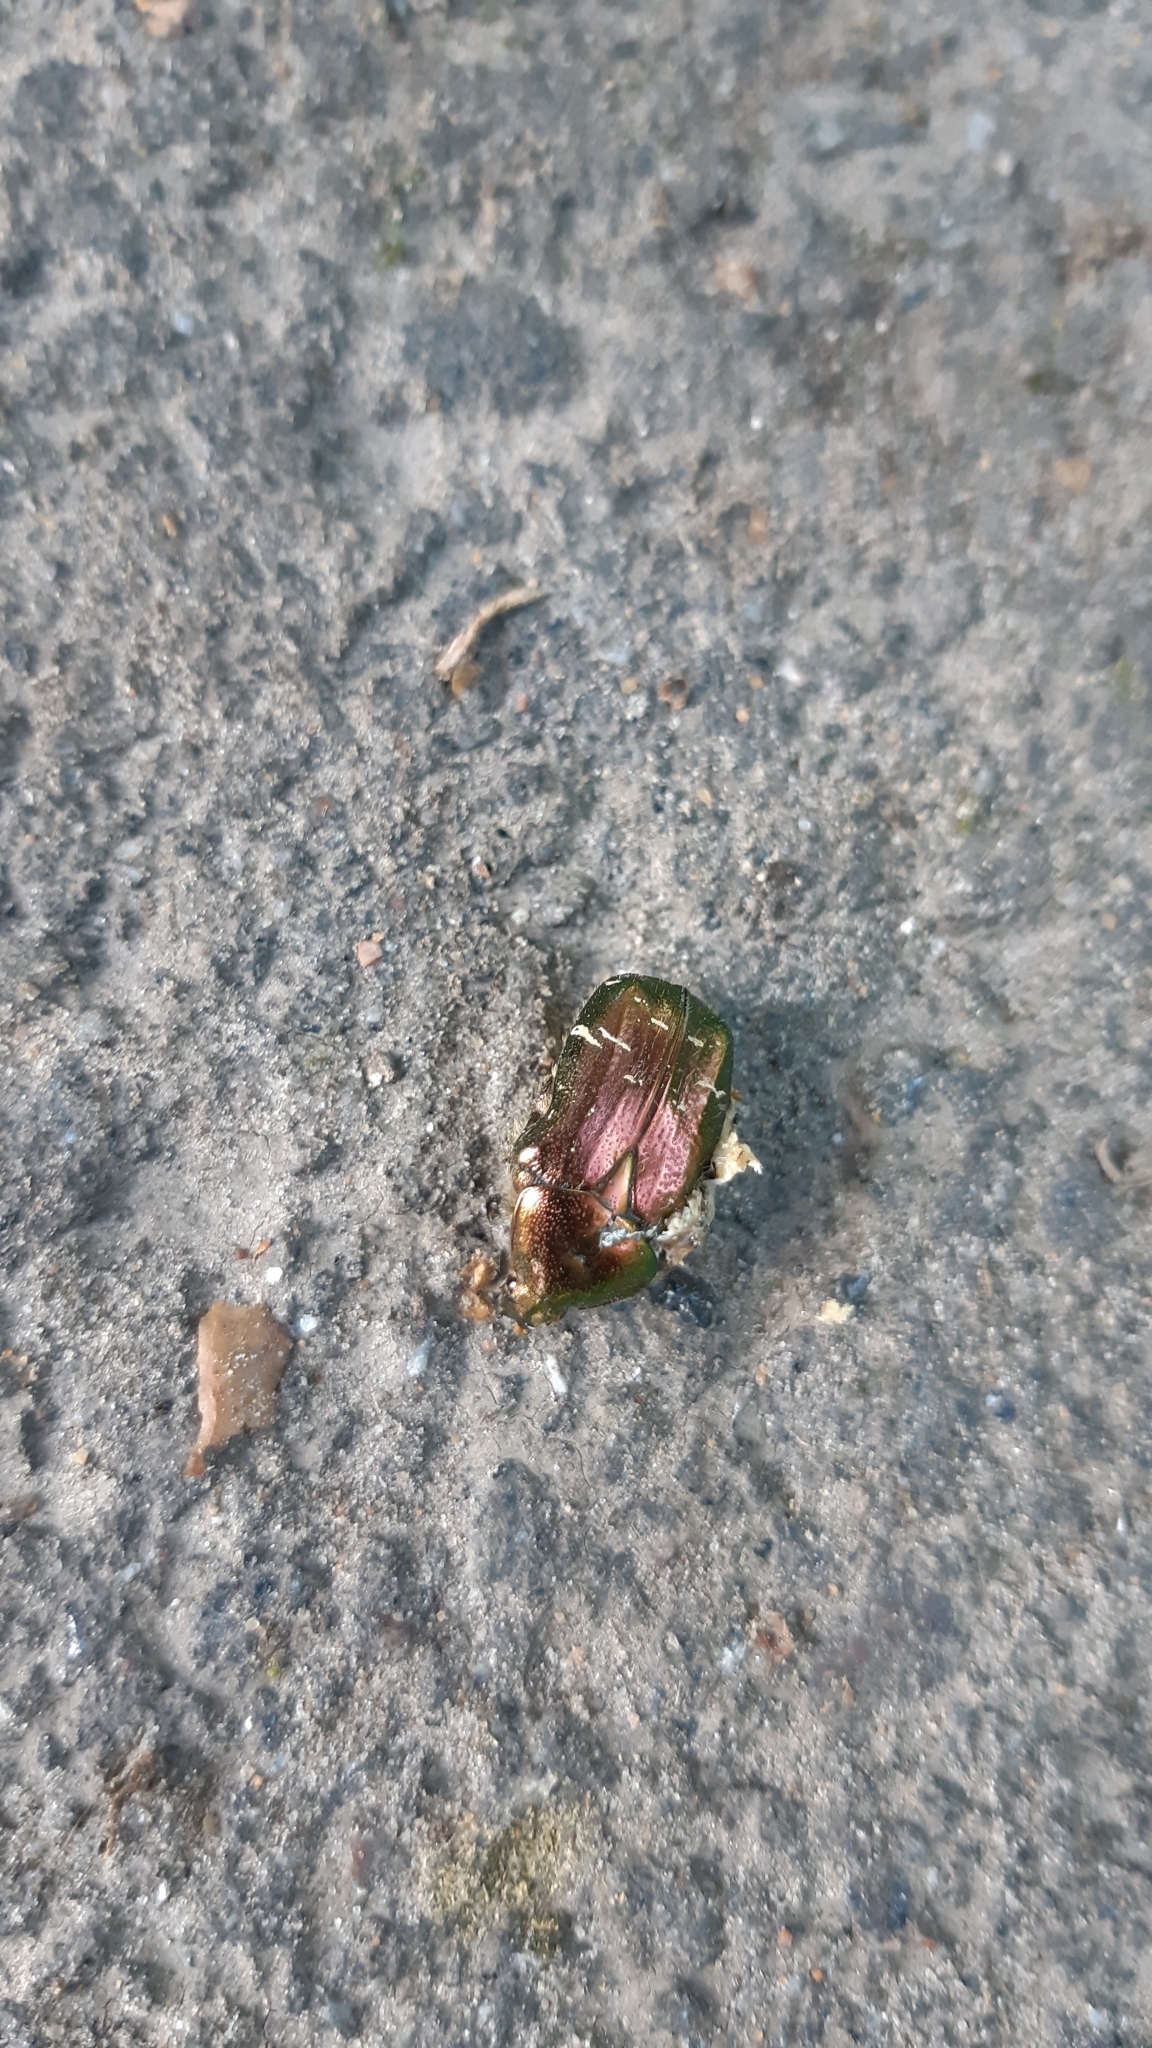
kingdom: Animalia
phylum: Arthropoda
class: Insecta
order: Coleoptera
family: Scarabaeidae
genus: Cetonia
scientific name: Cetonia aurata
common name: Rose chafer
